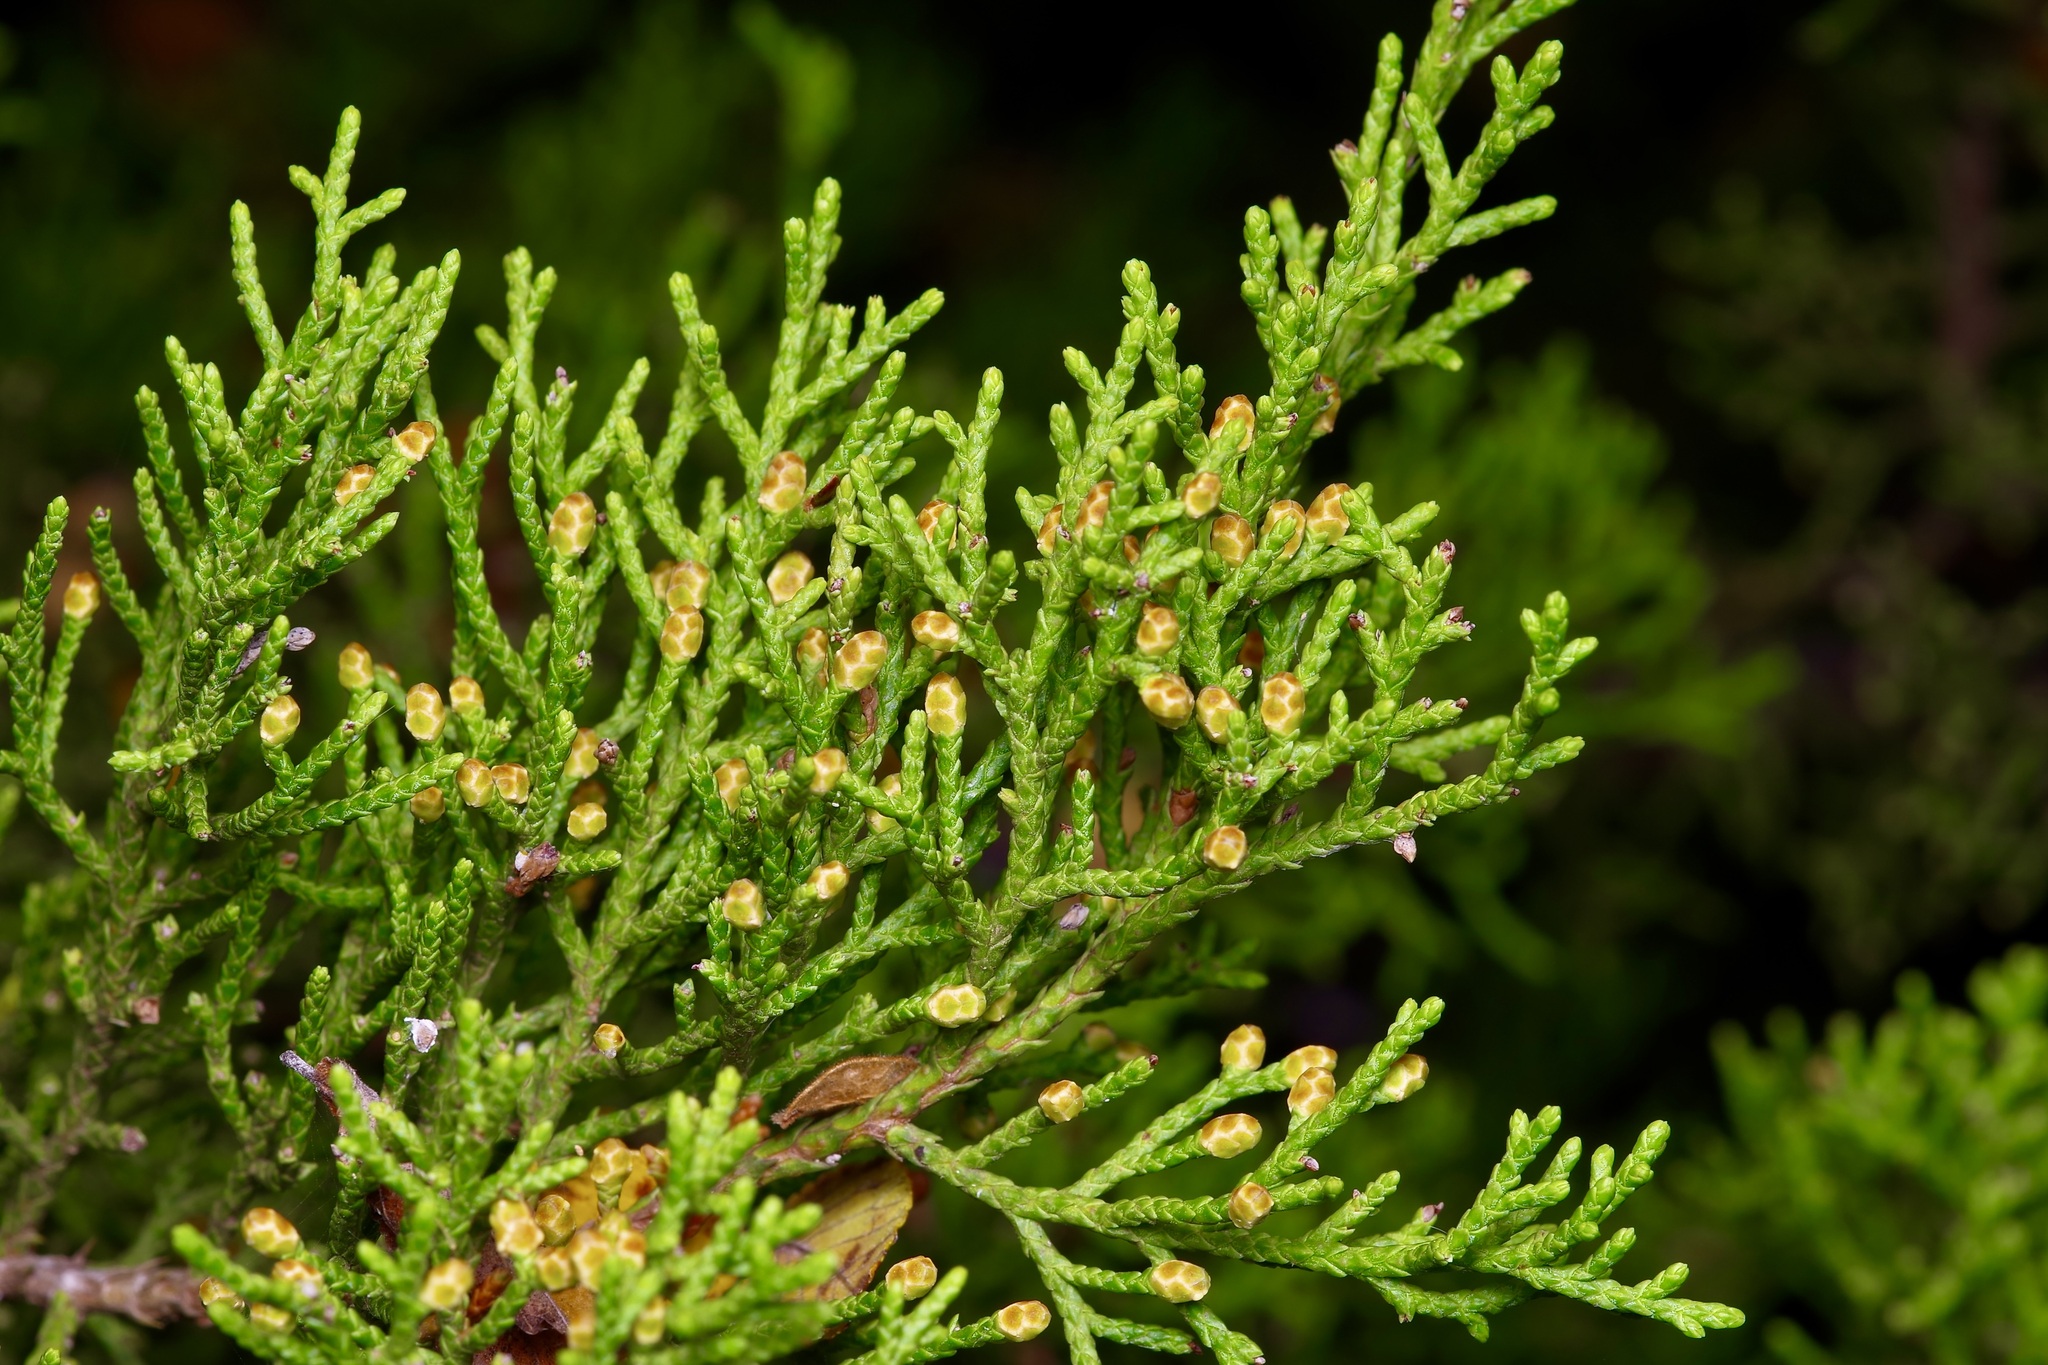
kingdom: Plantae
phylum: Tracheophyta
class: Pinopsida
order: Pinales
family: Cupressaceae
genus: Juniperus
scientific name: Juniperus ashei
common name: Mexican juniper
